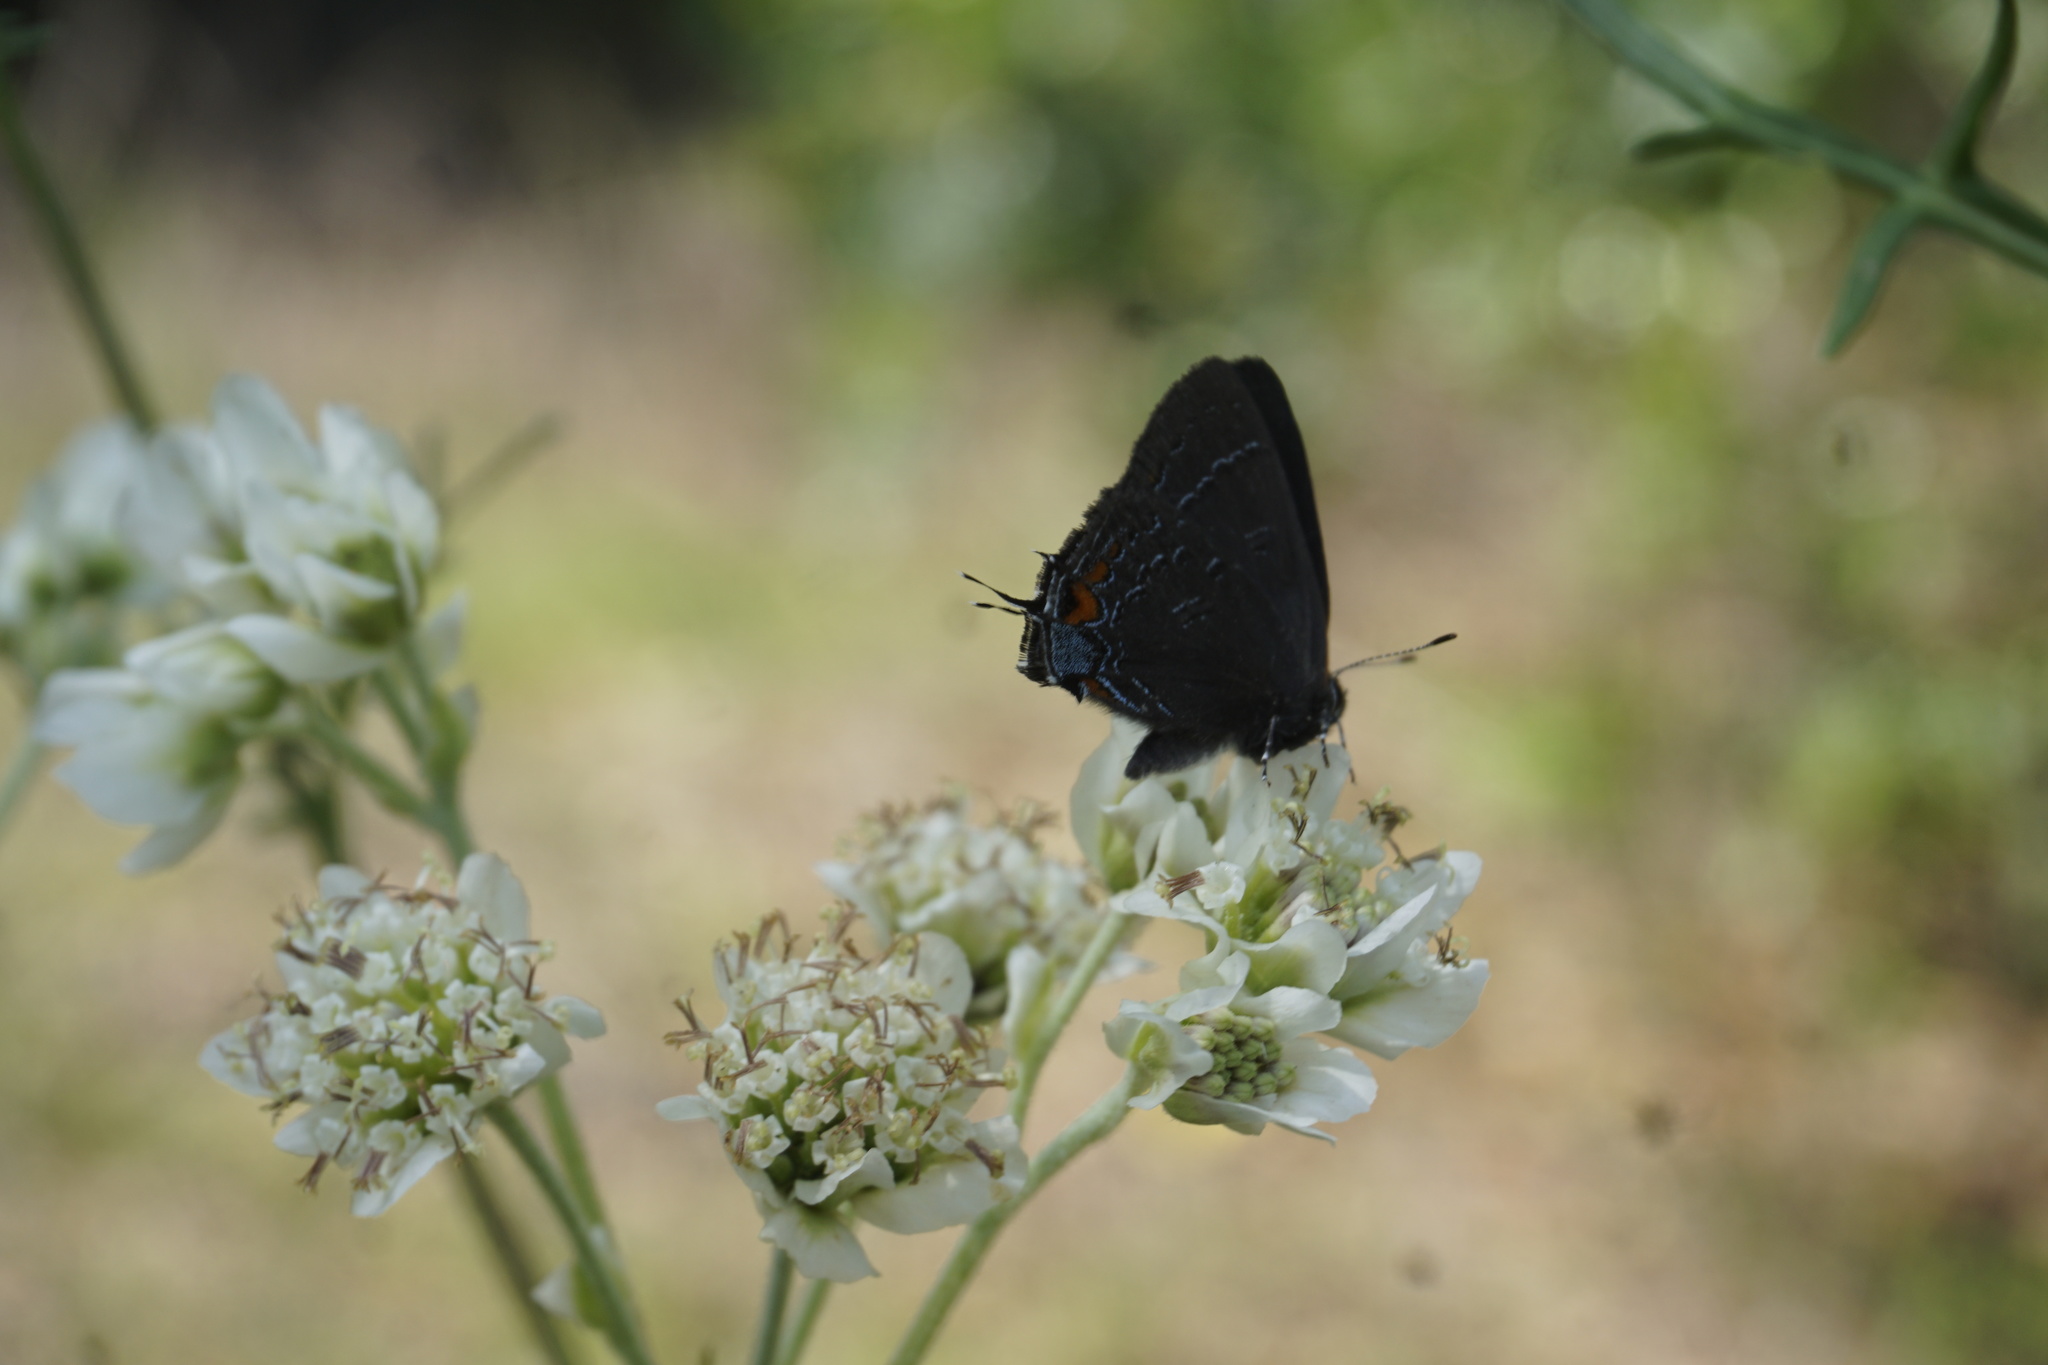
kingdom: Animalia
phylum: Arthropoda
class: Insecta
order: Lepidoptera
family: Lycaenidae
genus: Satyrium
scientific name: Satyrium calanus
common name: Banded hairstreak
